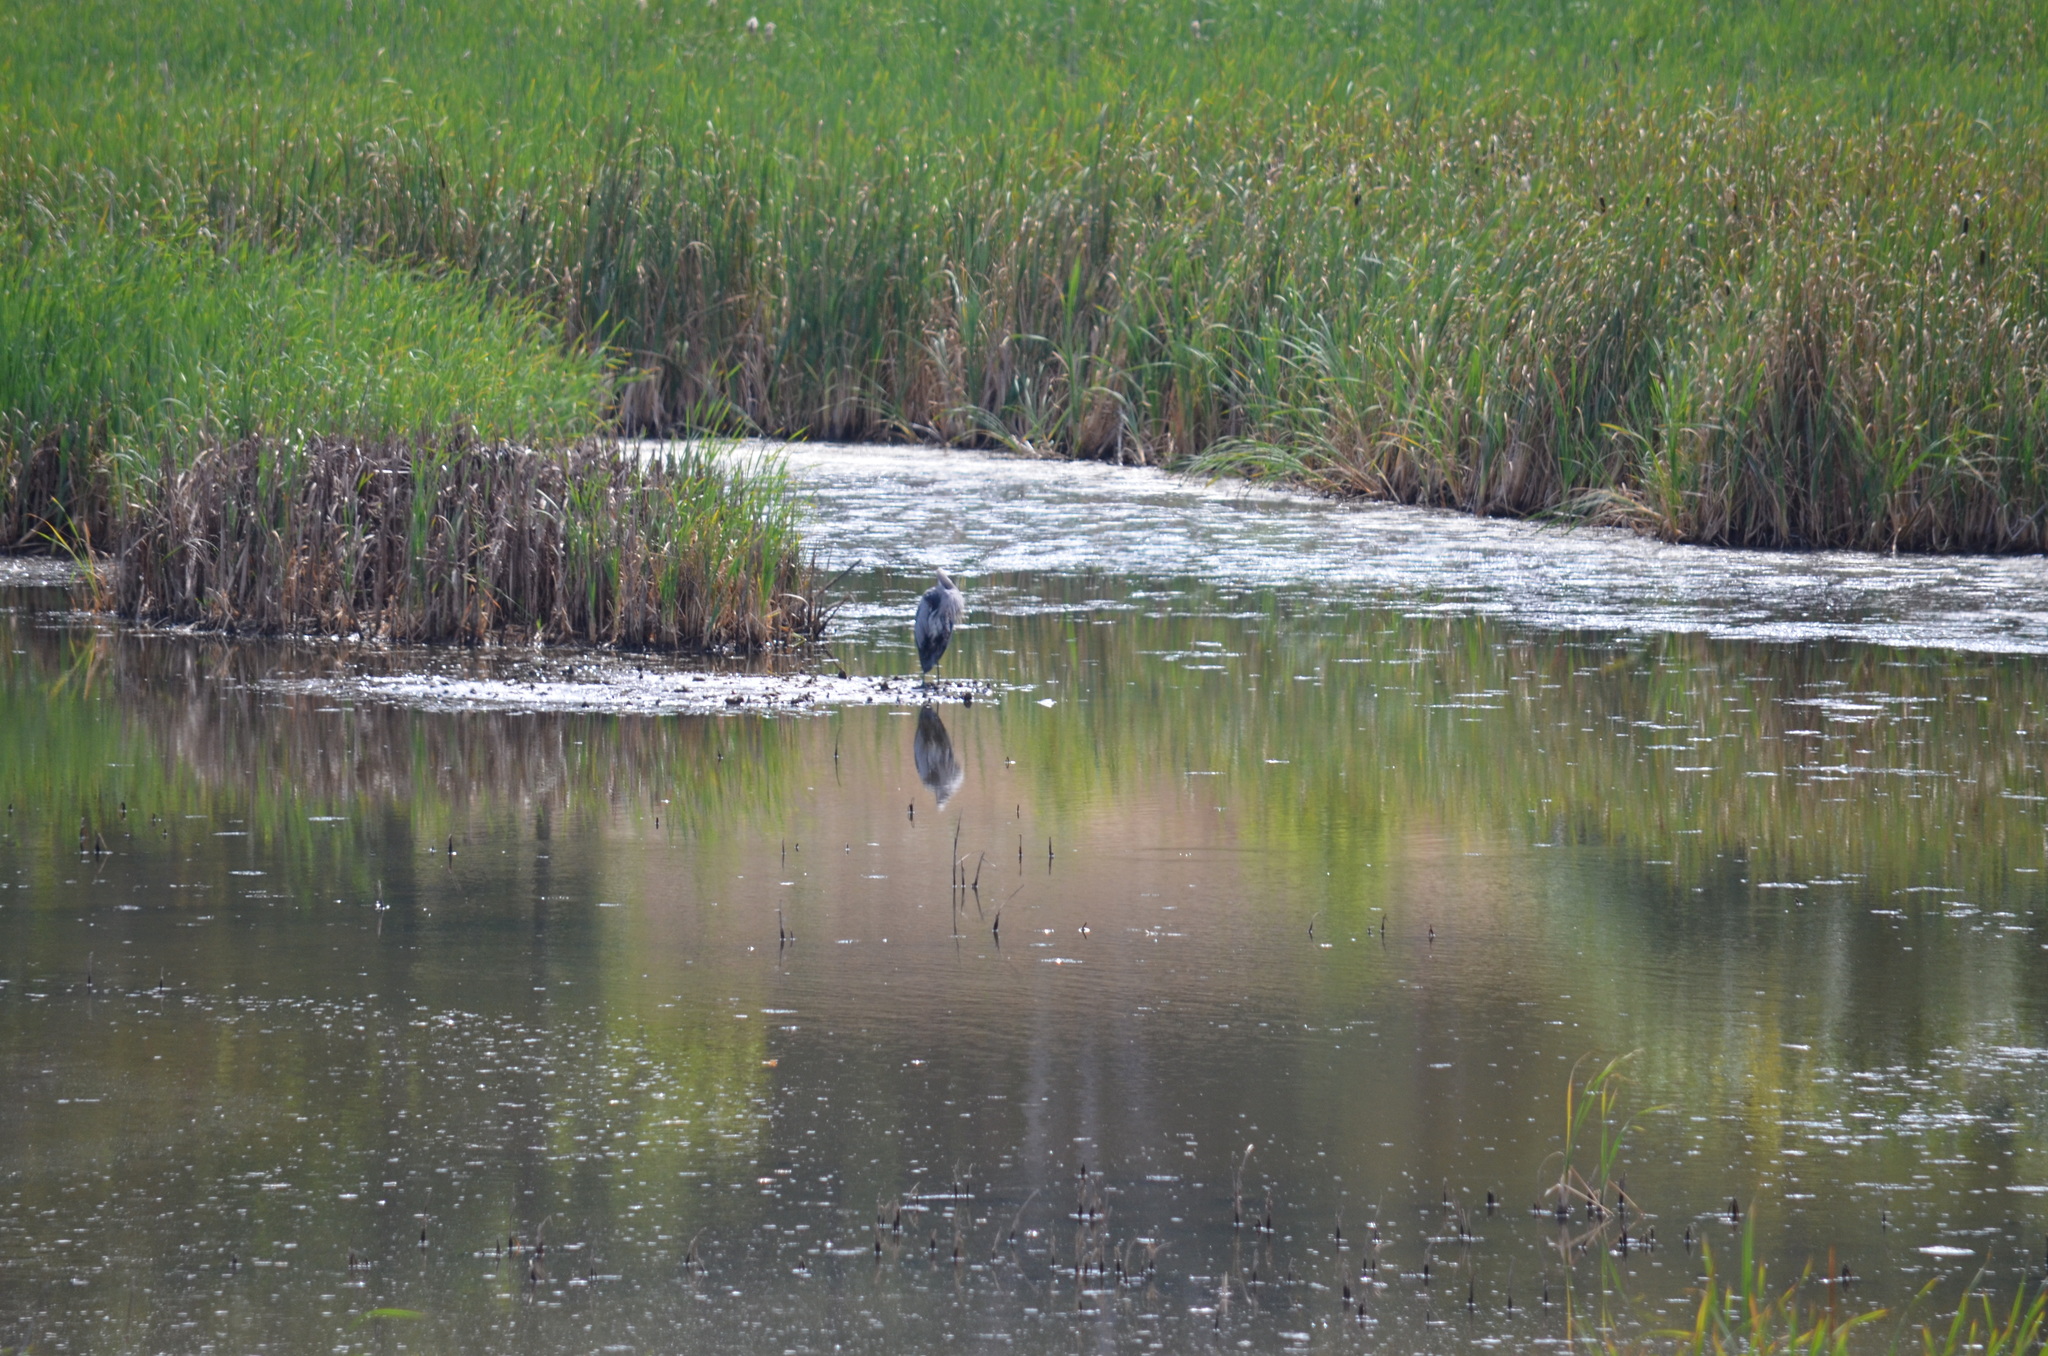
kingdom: Animalia
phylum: Chordata
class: Aves
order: Pelecaniformes
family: Ardeidae
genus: Ardea
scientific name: Ardea herodias
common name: Great blue heron
